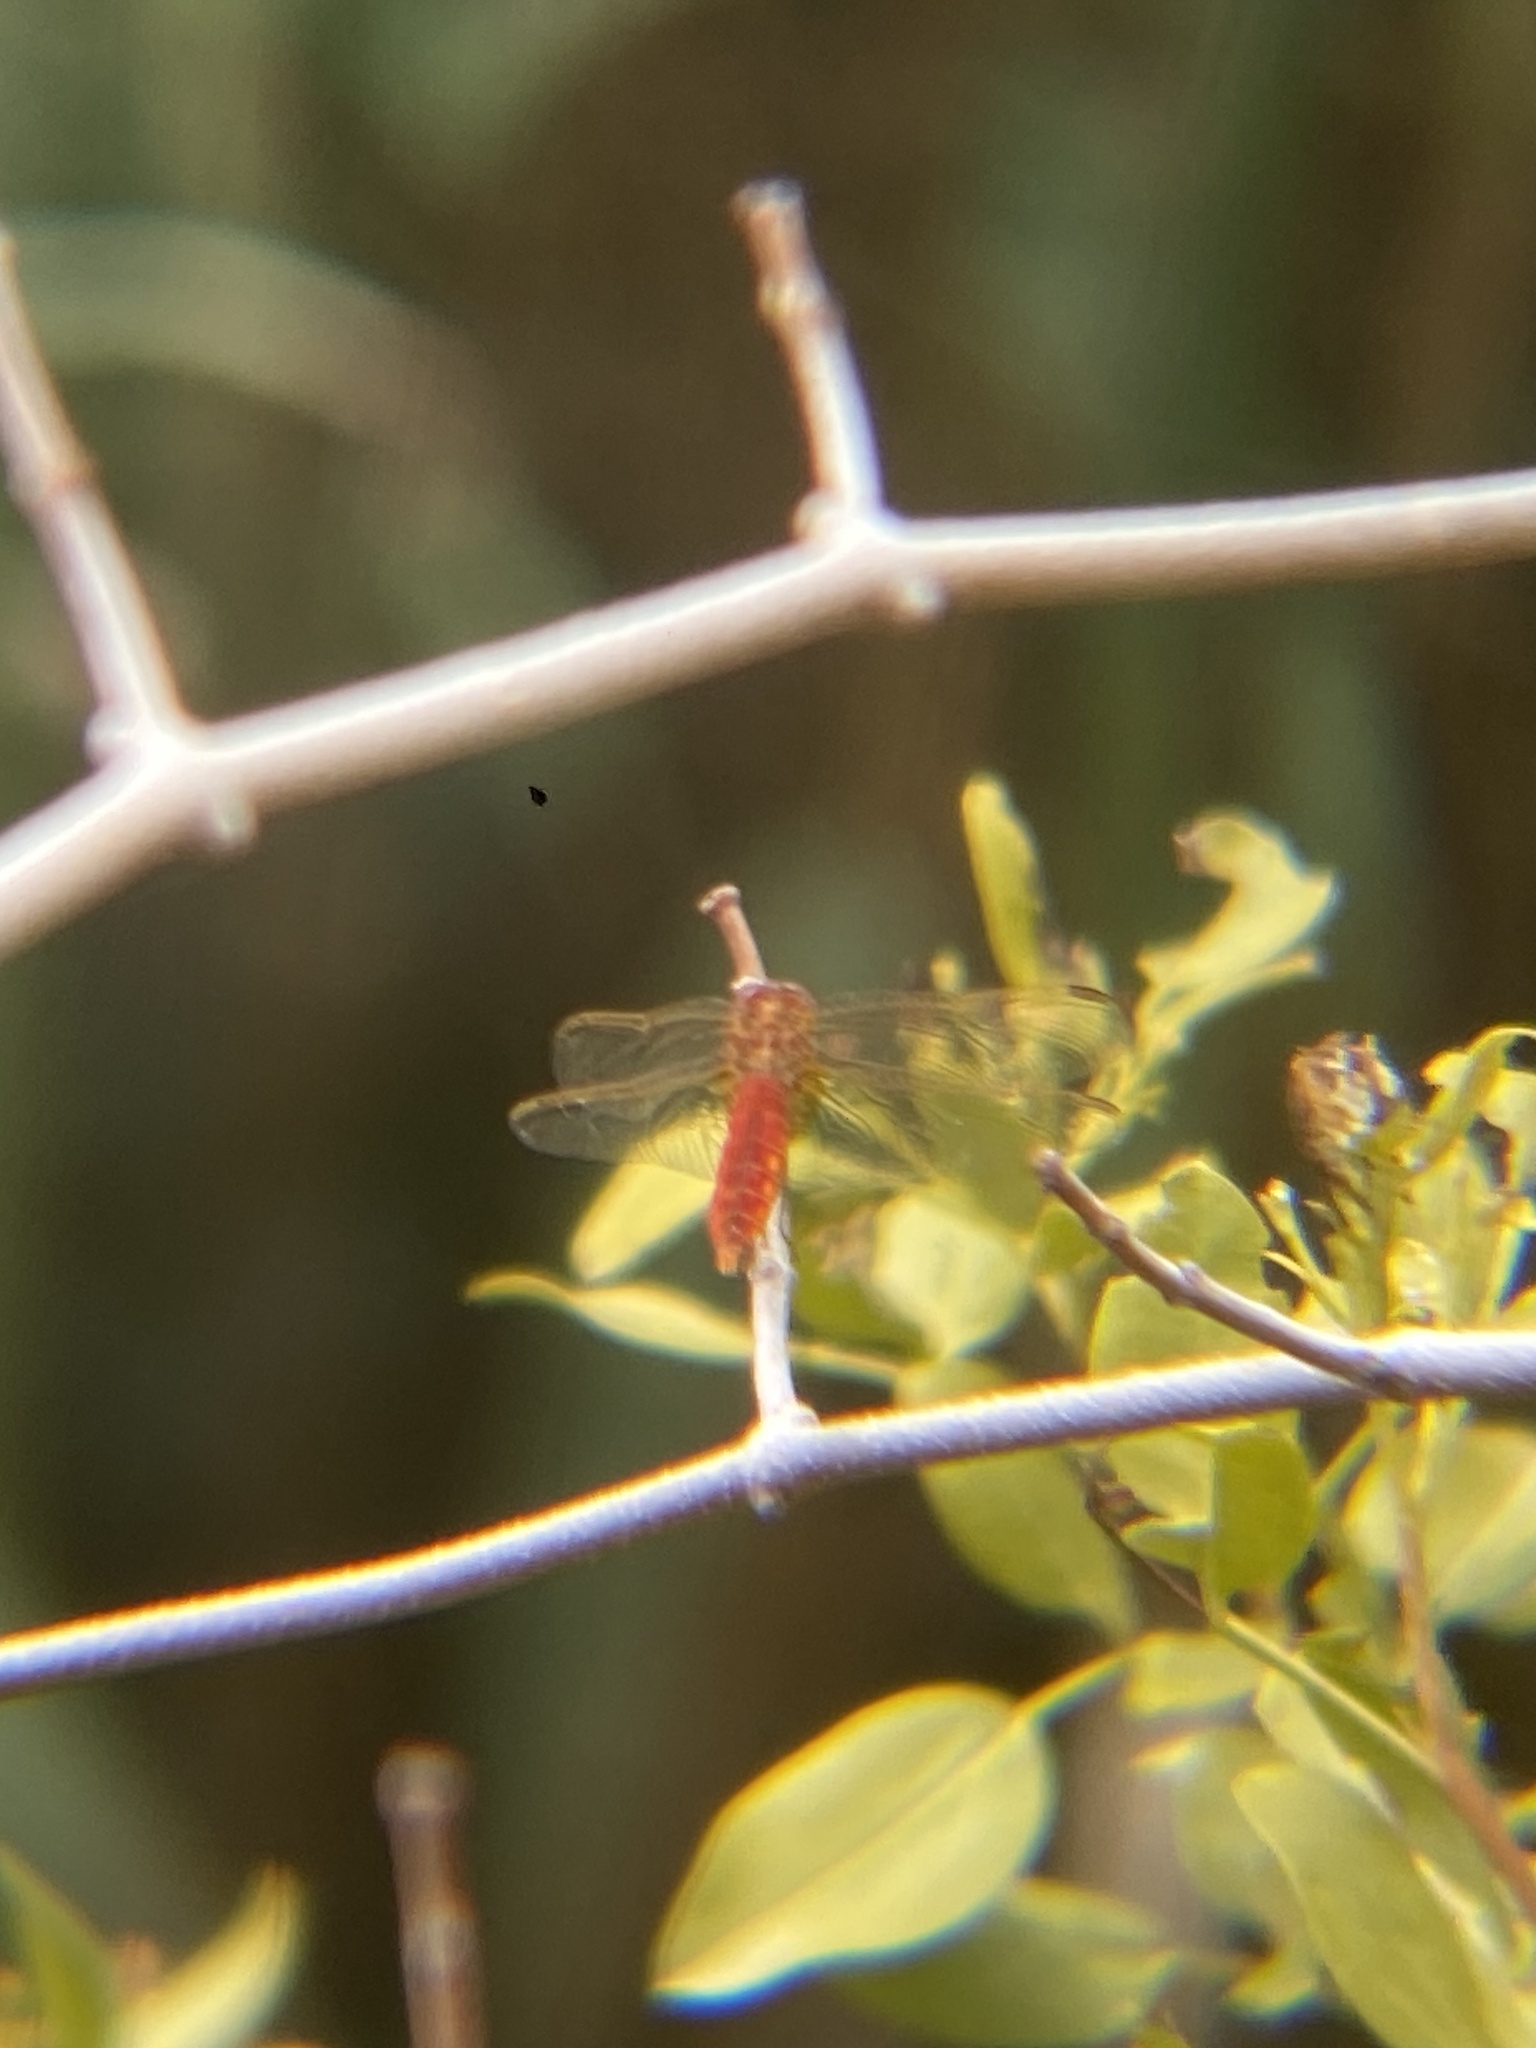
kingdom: Animalia
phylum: Arthropoda
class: Insecta
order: Odonata
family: Libellulidae
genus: Crocothemis
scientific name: Crocothemis erythraea
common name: Scarlet dragonfly
